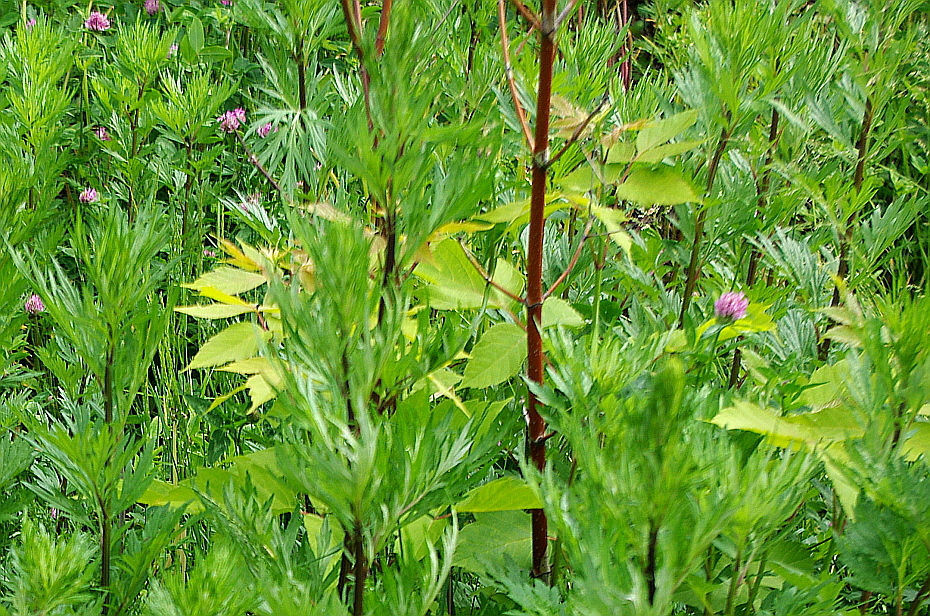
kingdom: Plantae
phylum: Tracheophyta
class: Magnoliopsida
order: Sapindales
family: Sapindaceae
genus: Acer
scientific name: Acer negundo
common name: Ashleaf maple
